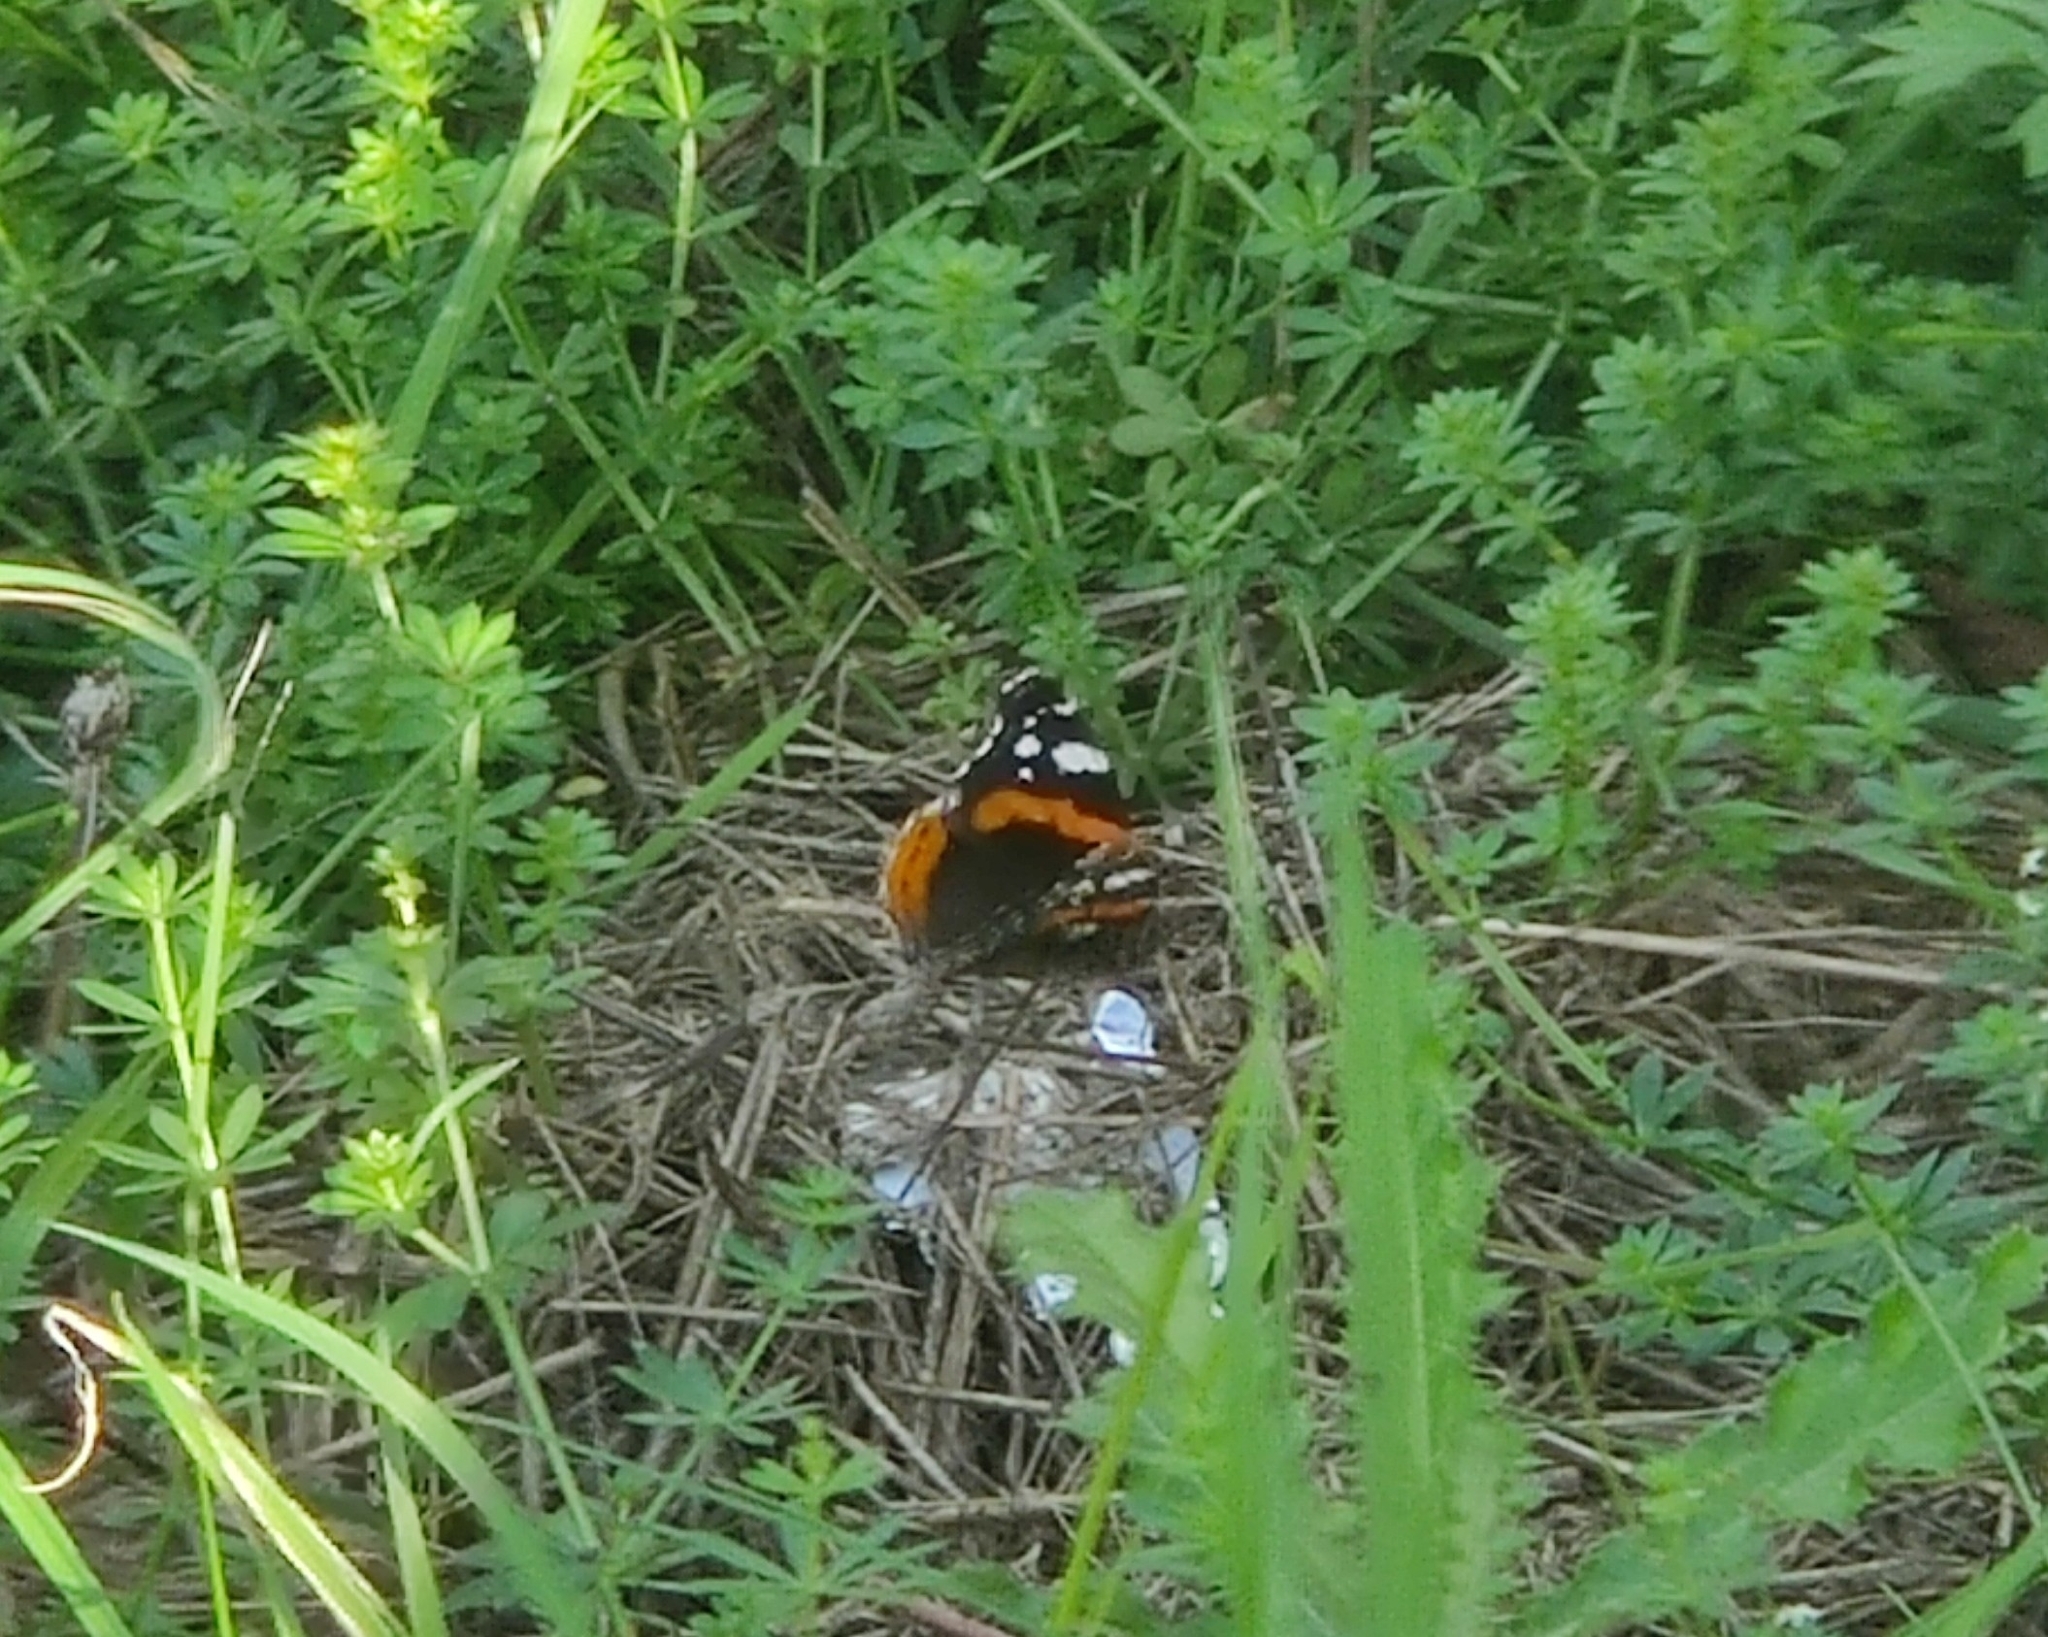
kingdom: Animalia
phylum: Arthropoda
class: Insecta
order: Lepidoptera
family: Nymphalidae
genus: Vanessa
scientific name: Vanessa atalanta
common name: Red admiral
